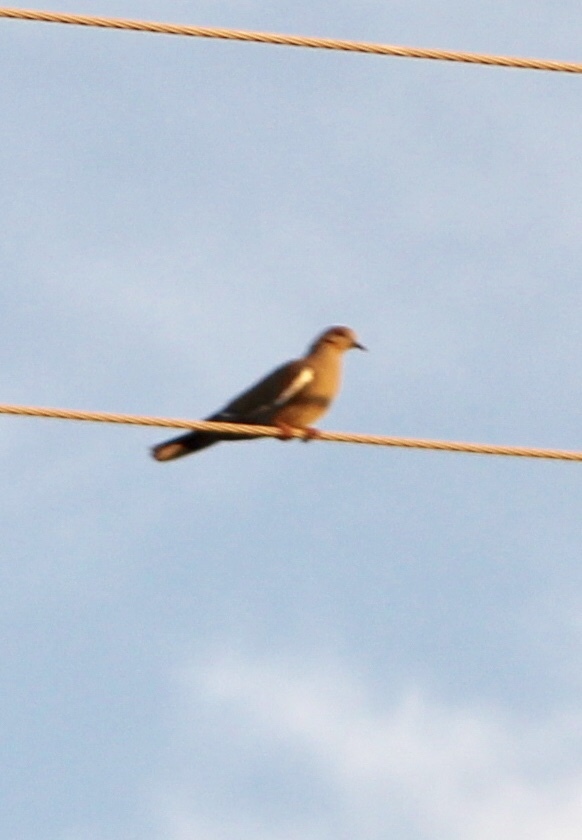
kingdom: Animalia
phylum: Chordata
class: Aves
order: Columbiformes
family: Columbidae
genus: Zenaida
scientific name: Zenaida asiatica
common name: White-winged dove
